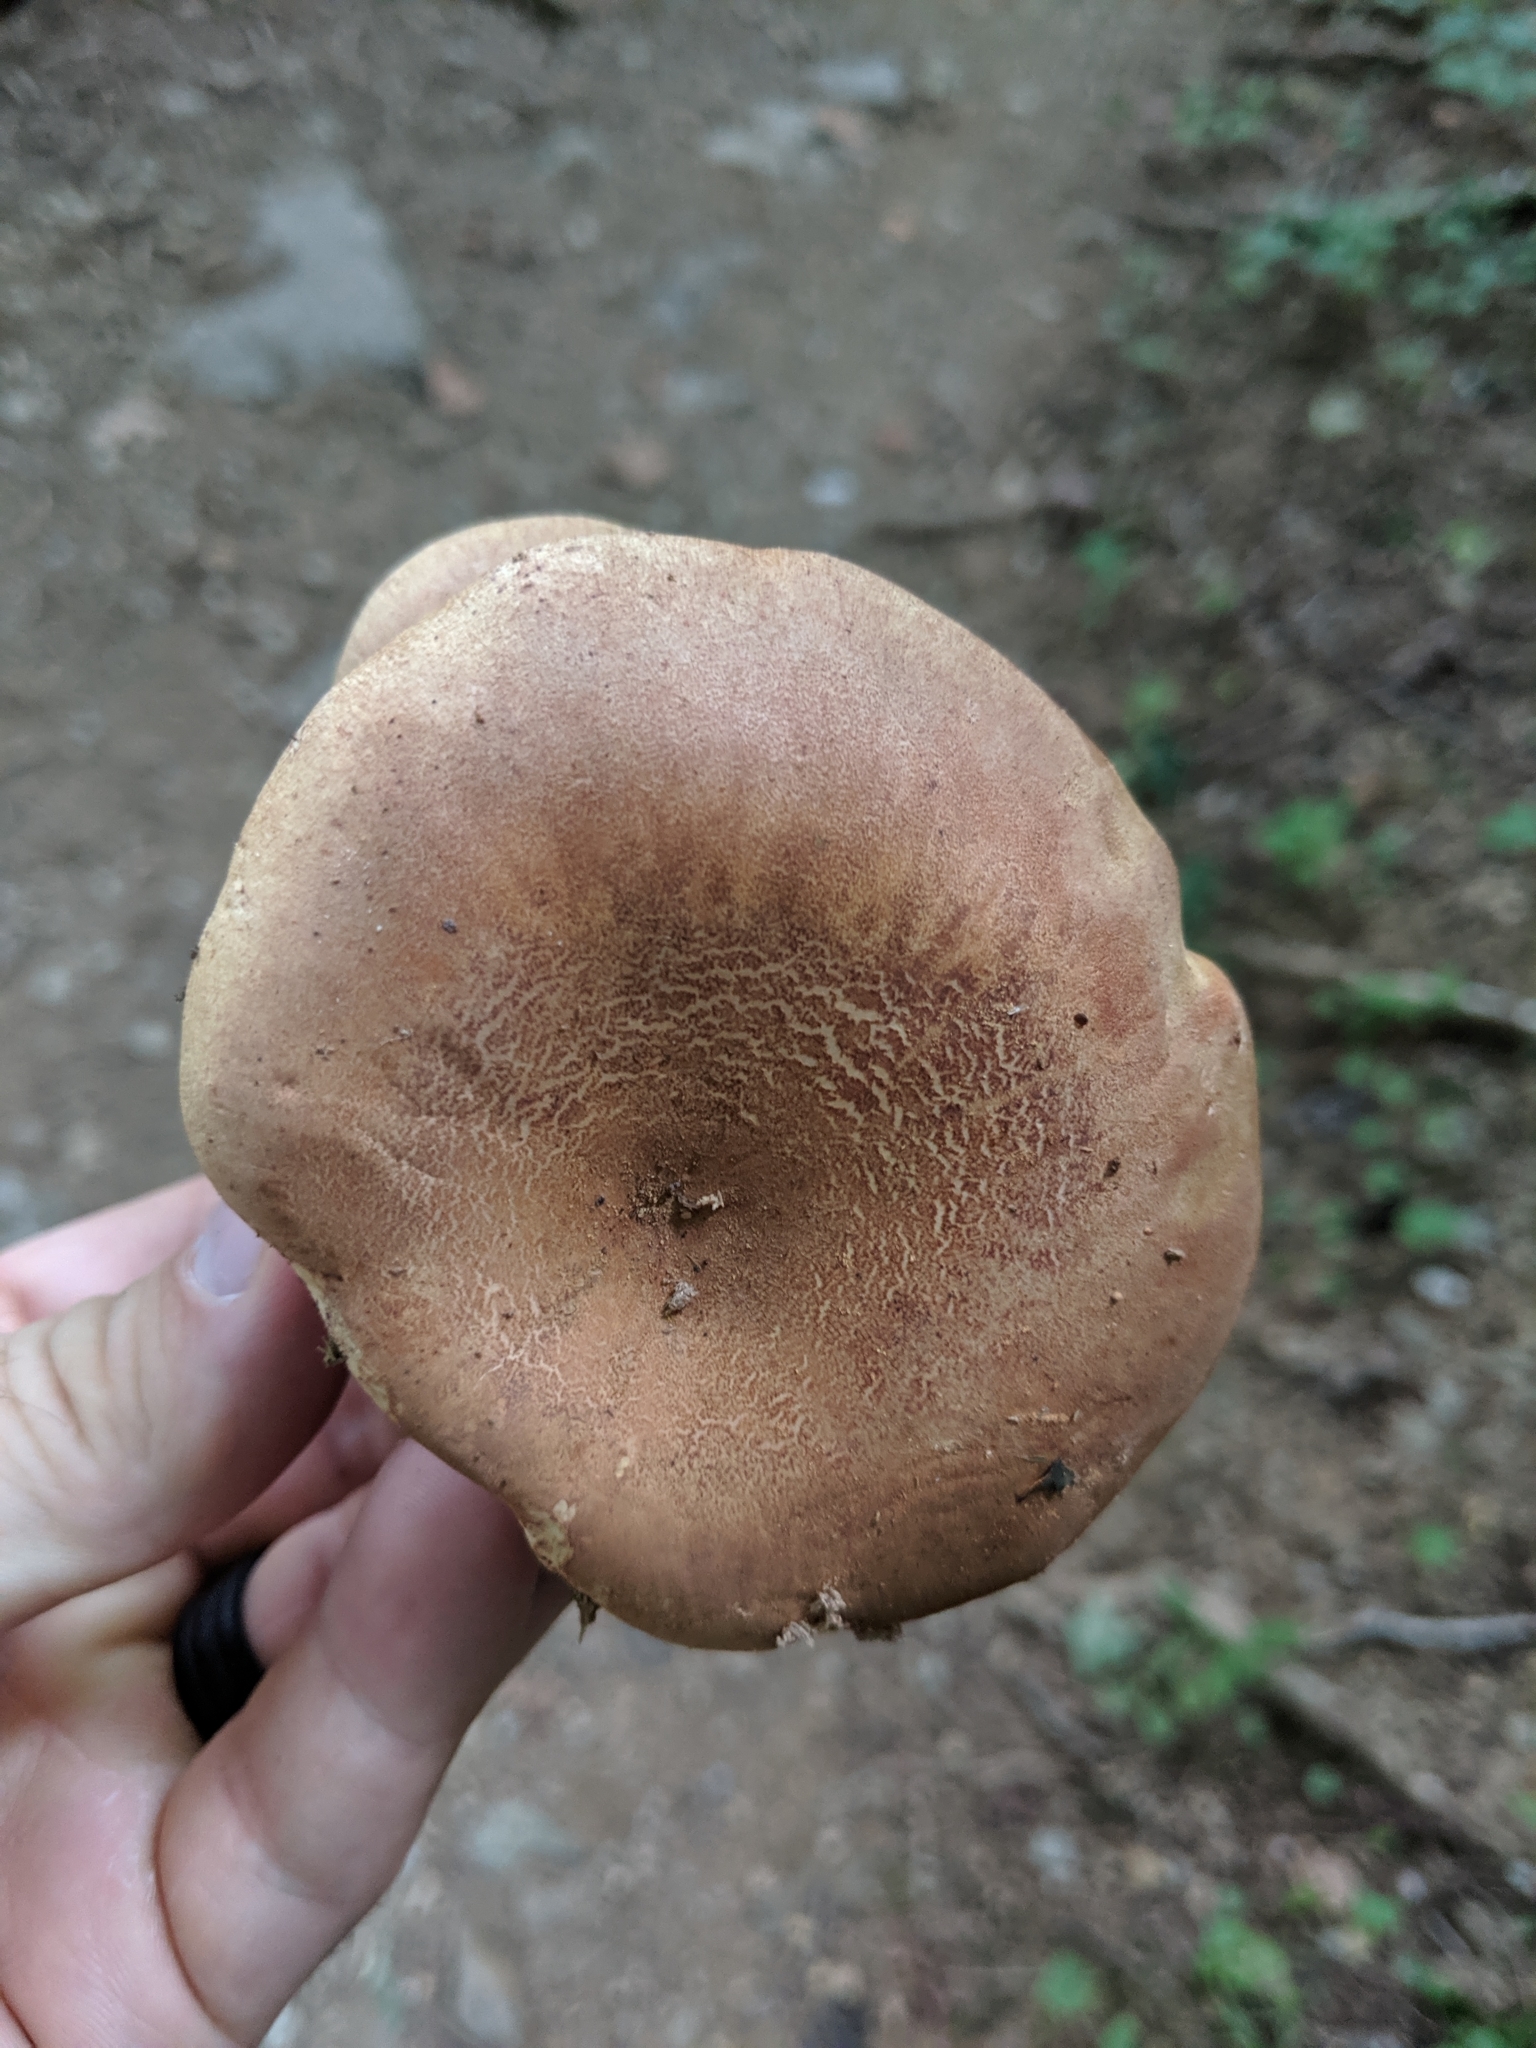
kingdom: Fungi
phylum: Basidiomycota
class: Agaricomycetes
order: Boletales
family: Tapinellaceae
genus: Tapinella
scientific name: Tapinella atrotomentosa
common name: Velvet rollrim
